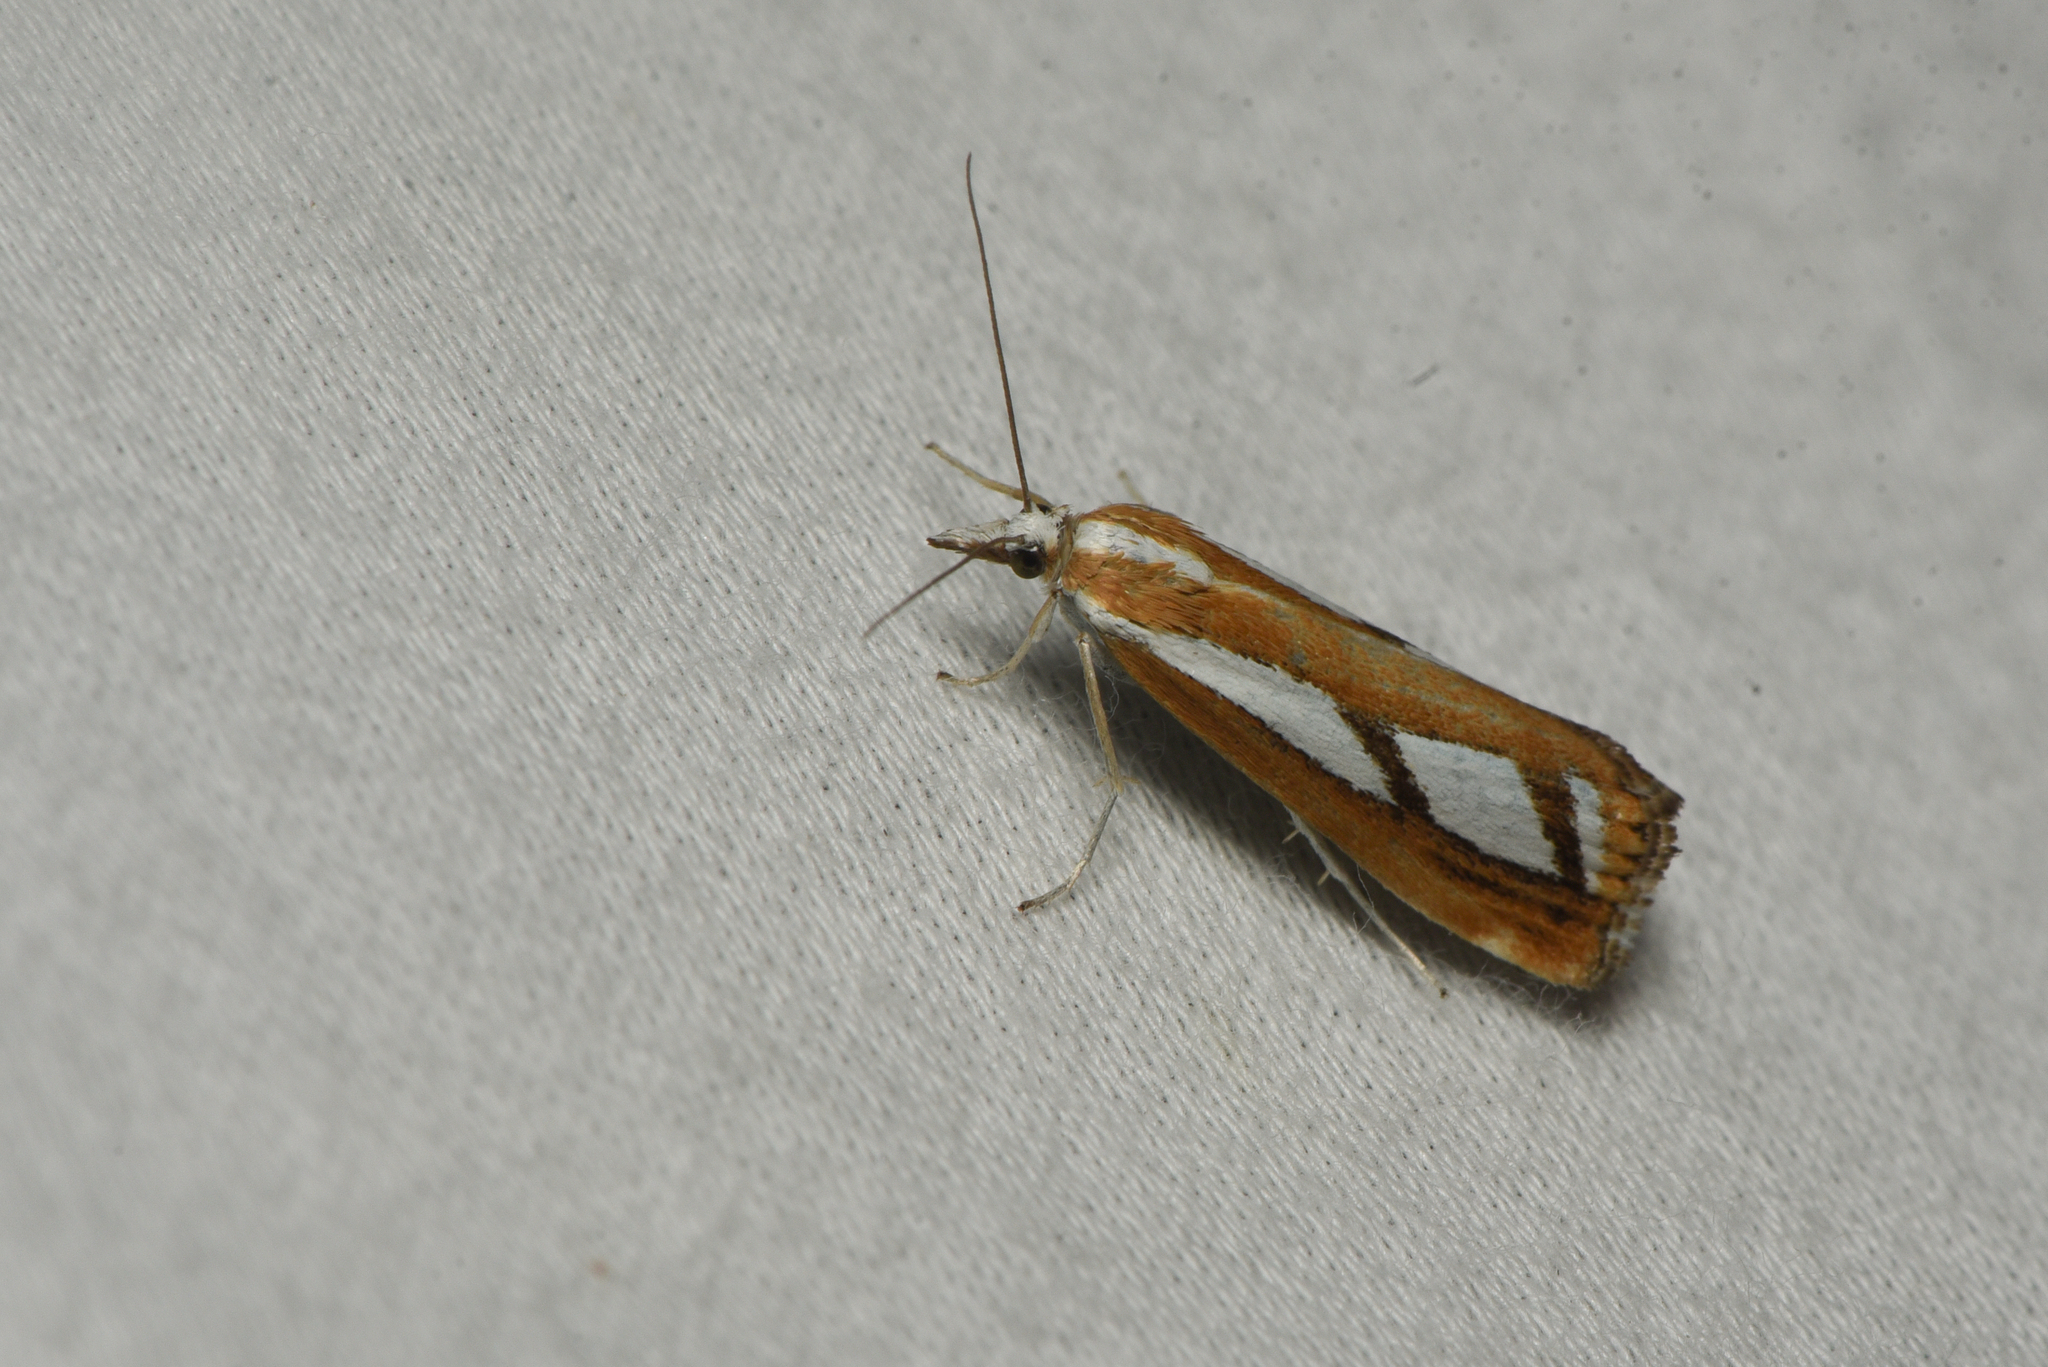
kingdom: Animalia
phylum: Arthropoda
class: Insecta
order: Lepidoptera
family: Crambidae
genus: Catoptria
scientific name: Catoptria latiradiellus
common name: Two-banded catoptria moth
